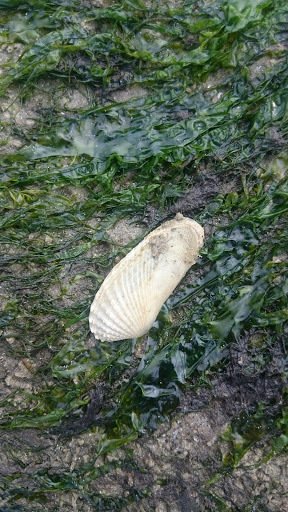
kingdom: Animalia
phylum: Mollusca
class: Bivalvia
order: Venerida
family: Veneridae
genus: Petricolaria
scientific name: Petricolaria pholadiformis
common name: American piddock
